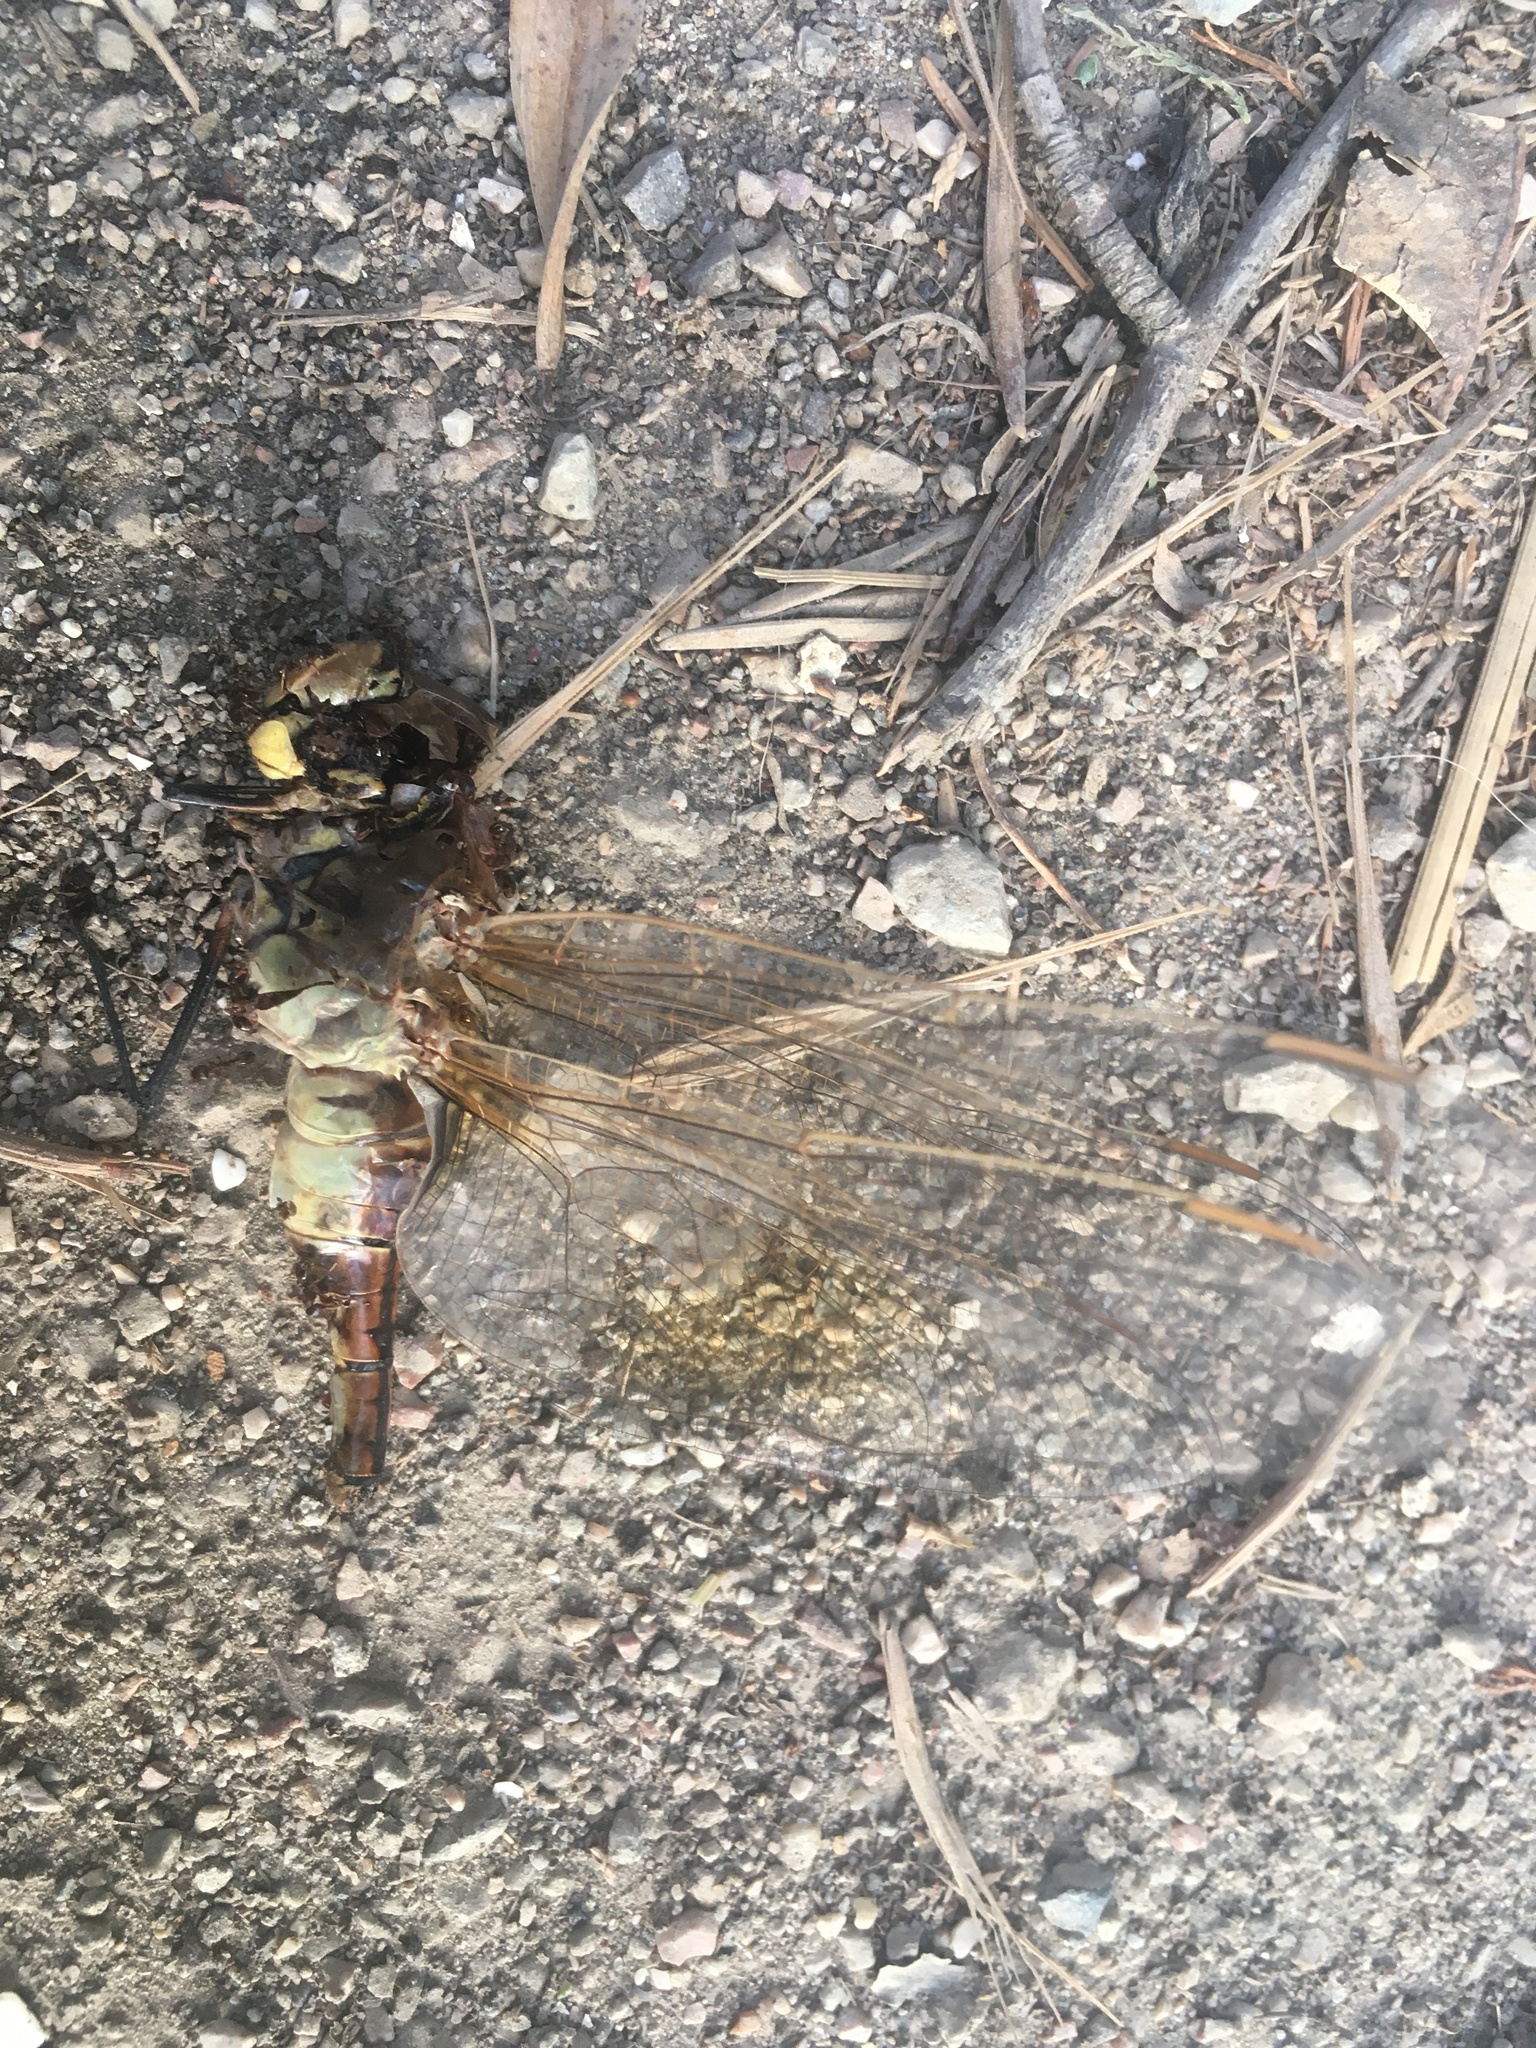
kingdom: Animalia
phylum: Arthropoda
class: Insecta
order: Odonata
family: Aeshnidae
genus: Anax
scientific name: Anax ephippiger
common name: Vagrant emperor
